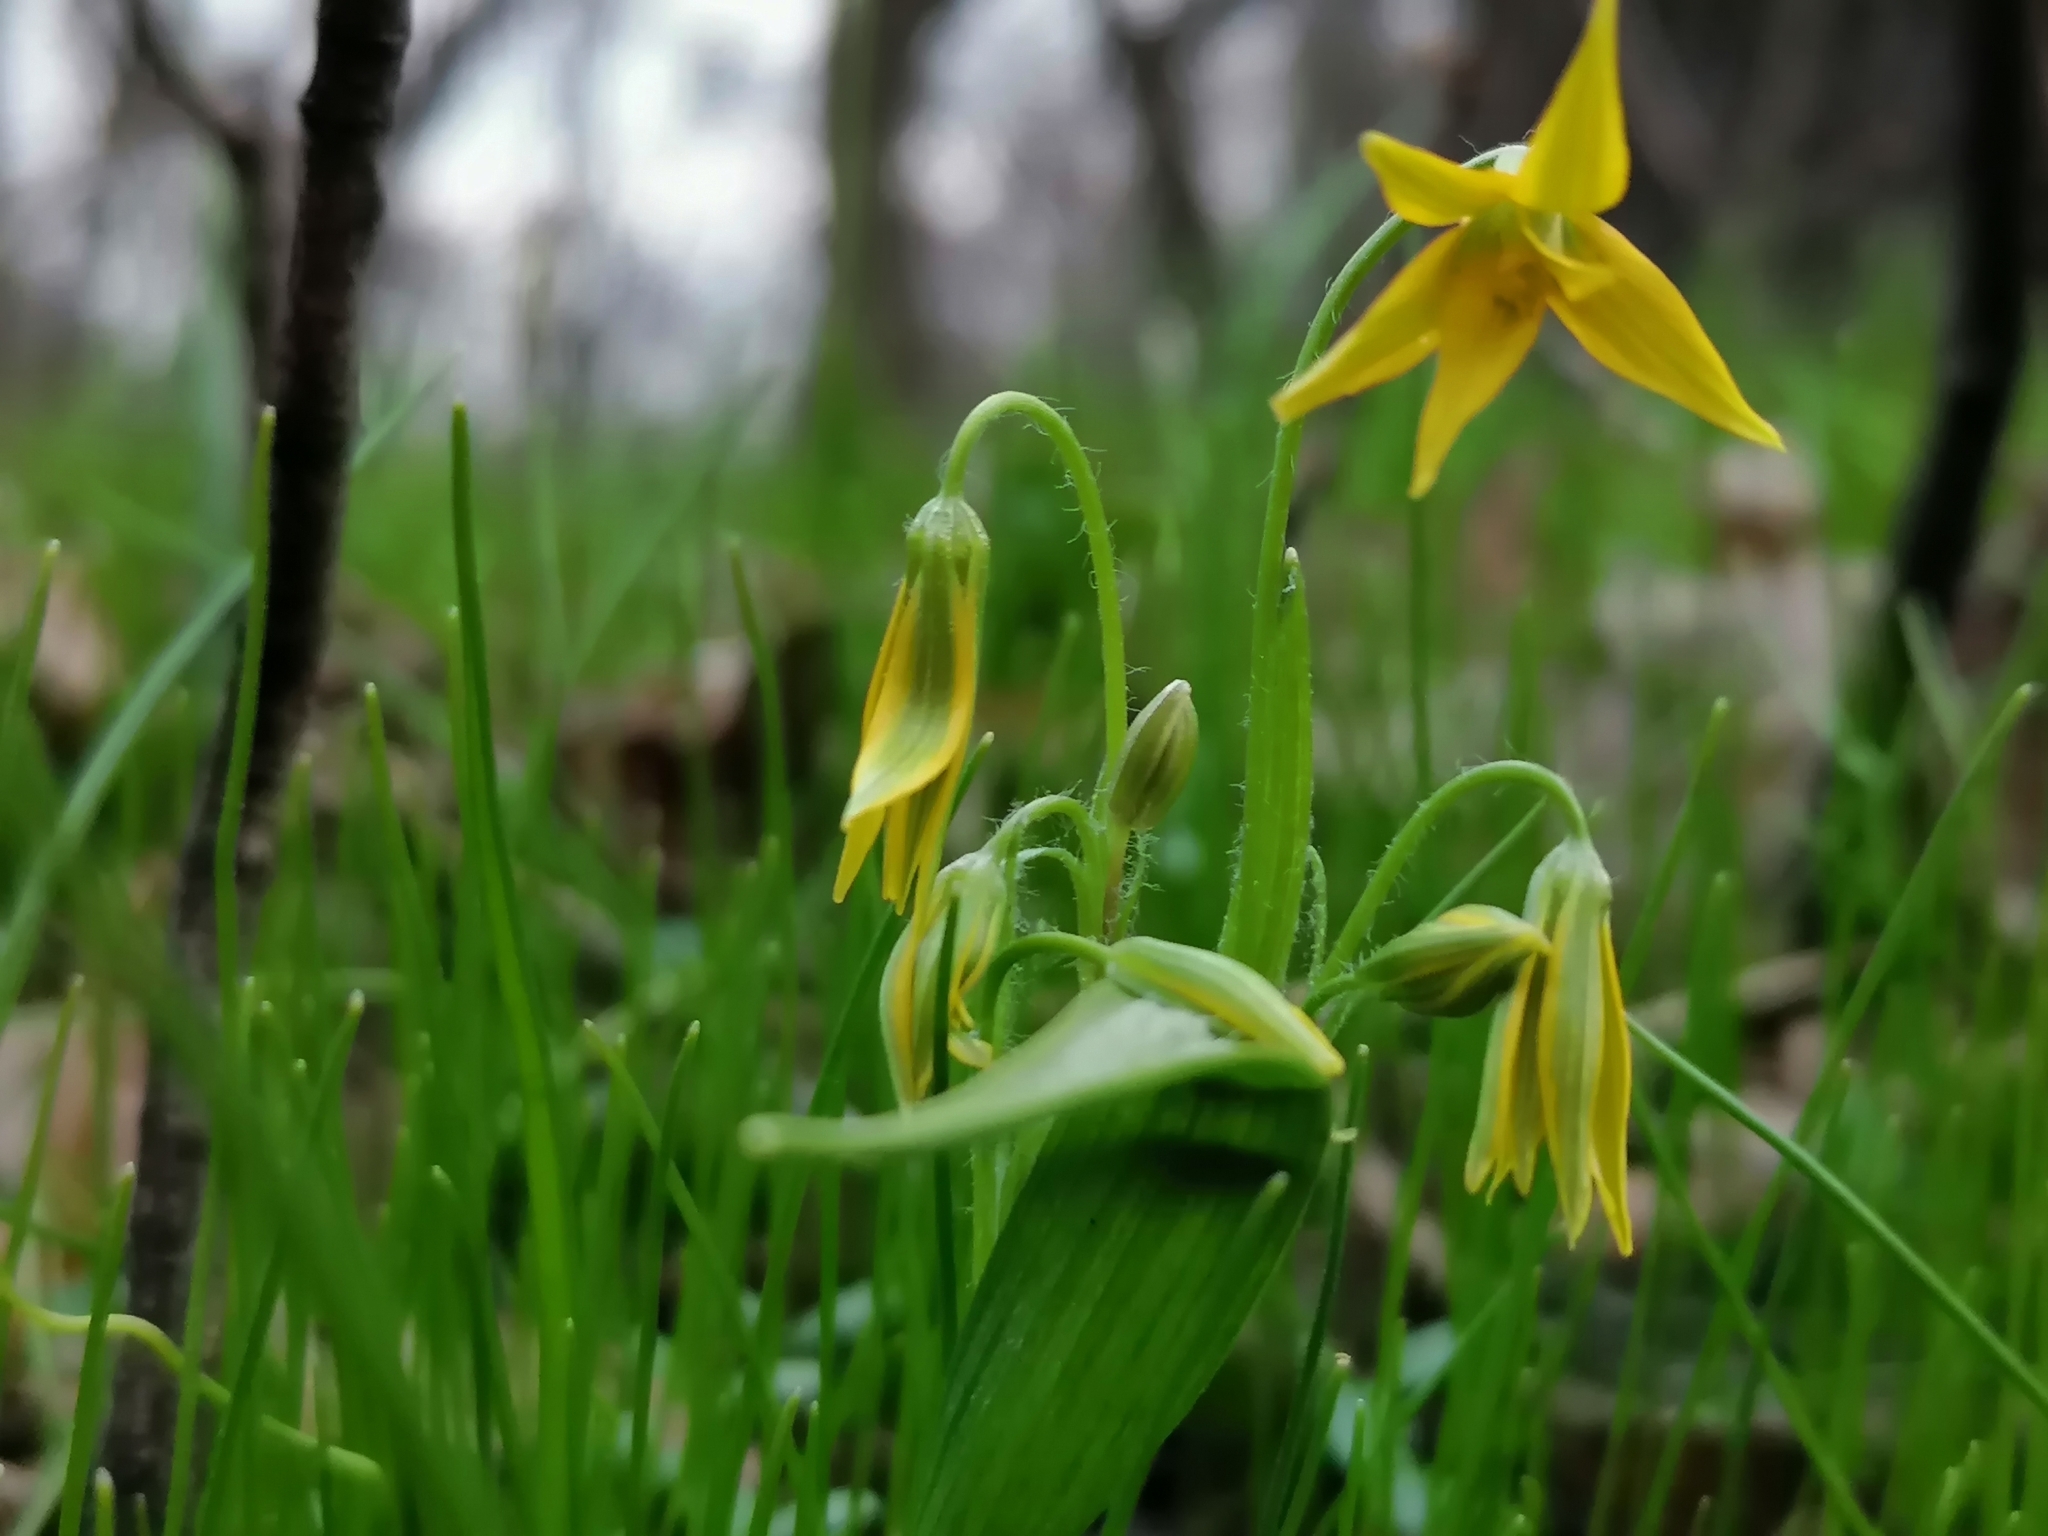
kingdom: Plantae
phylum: Tracheophyta
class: Liliopsida
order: Liliales
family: Liliaceae
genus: Gagea
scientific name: Gagea minima
